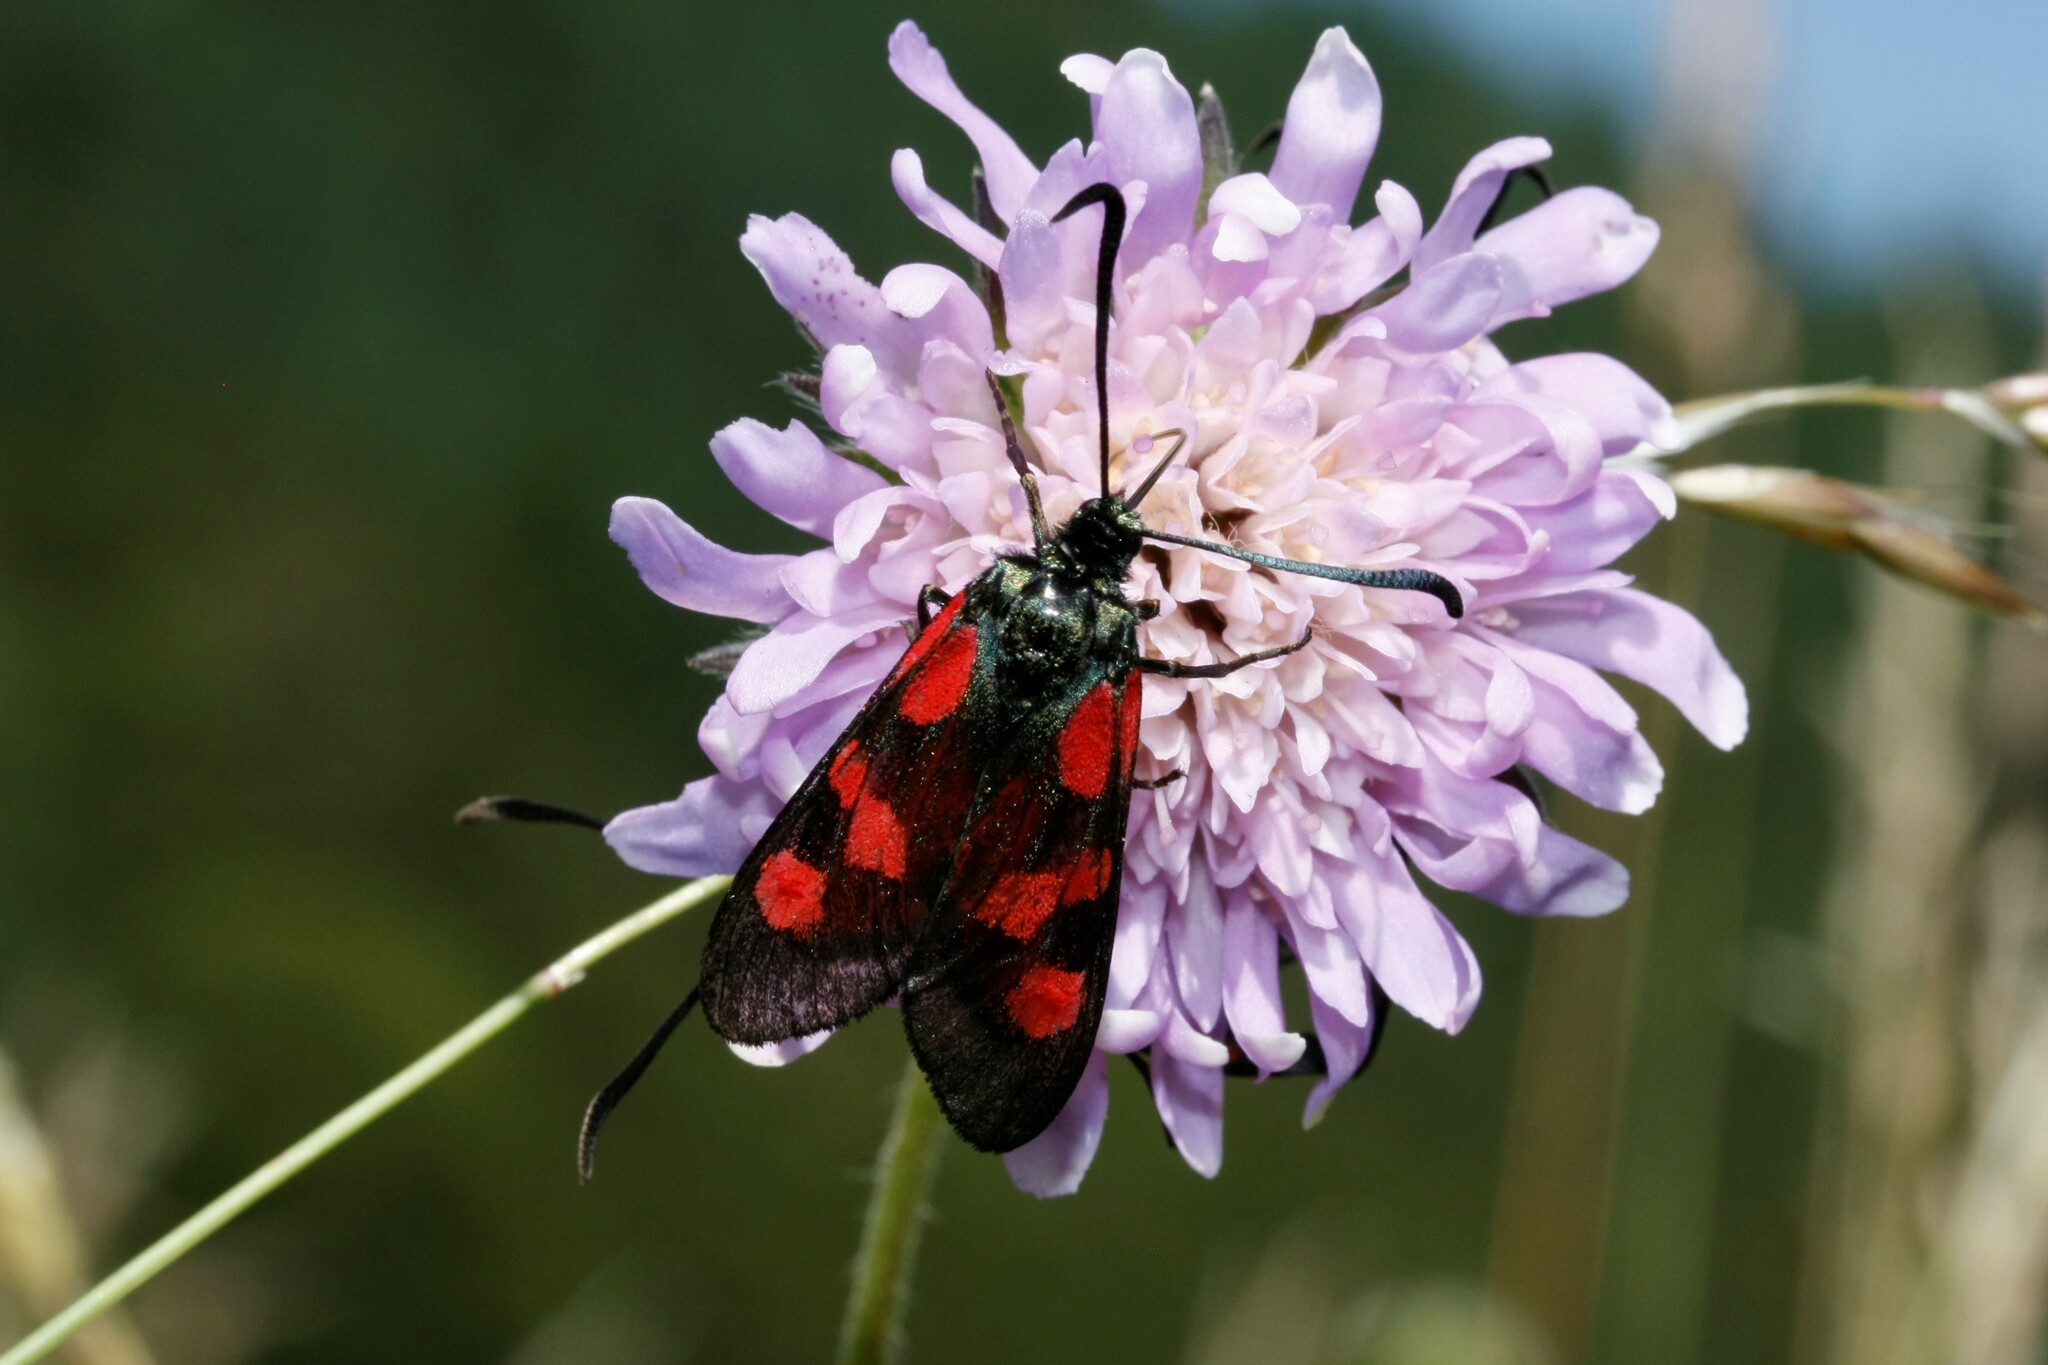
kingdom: Animalia
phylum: Arthropoda
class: Insecta
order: Lepidoptera
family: Zygaenidae
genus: Zygaena
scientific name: Zygaena viciae
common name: New forest burnet
